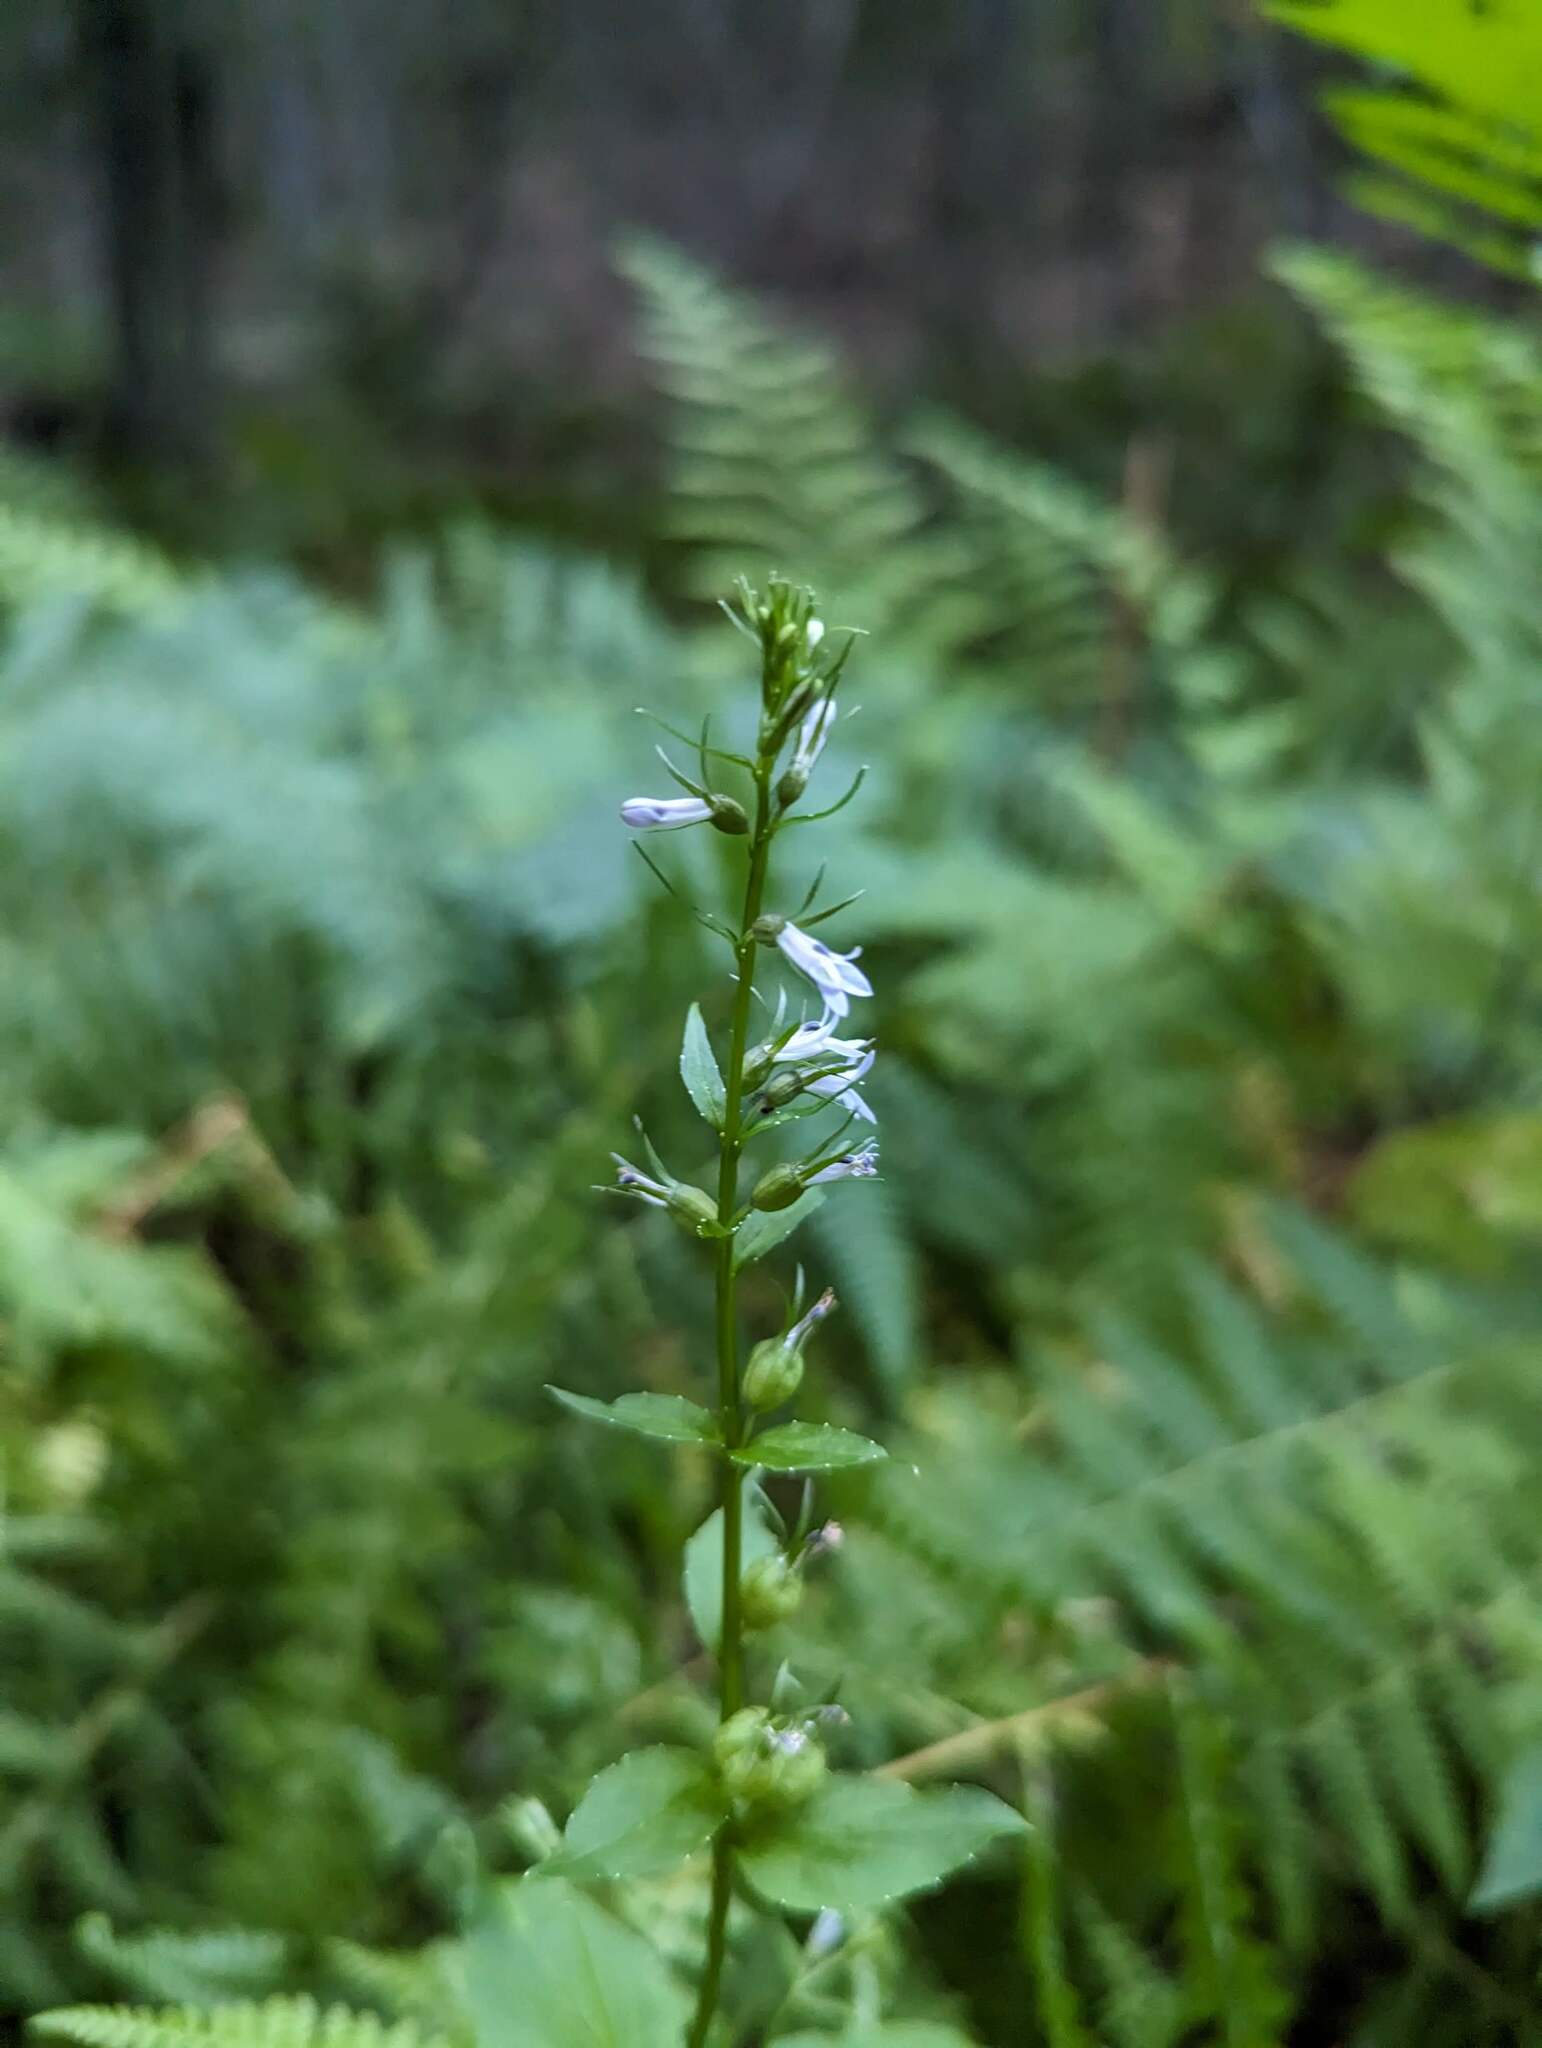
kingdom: Plantae
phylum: Tracheophyta
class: Magnoliopsida
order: Asterales
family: Campanulaceae
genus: Lobelia
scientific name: Lobelia inflata
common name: Indian tobacco
